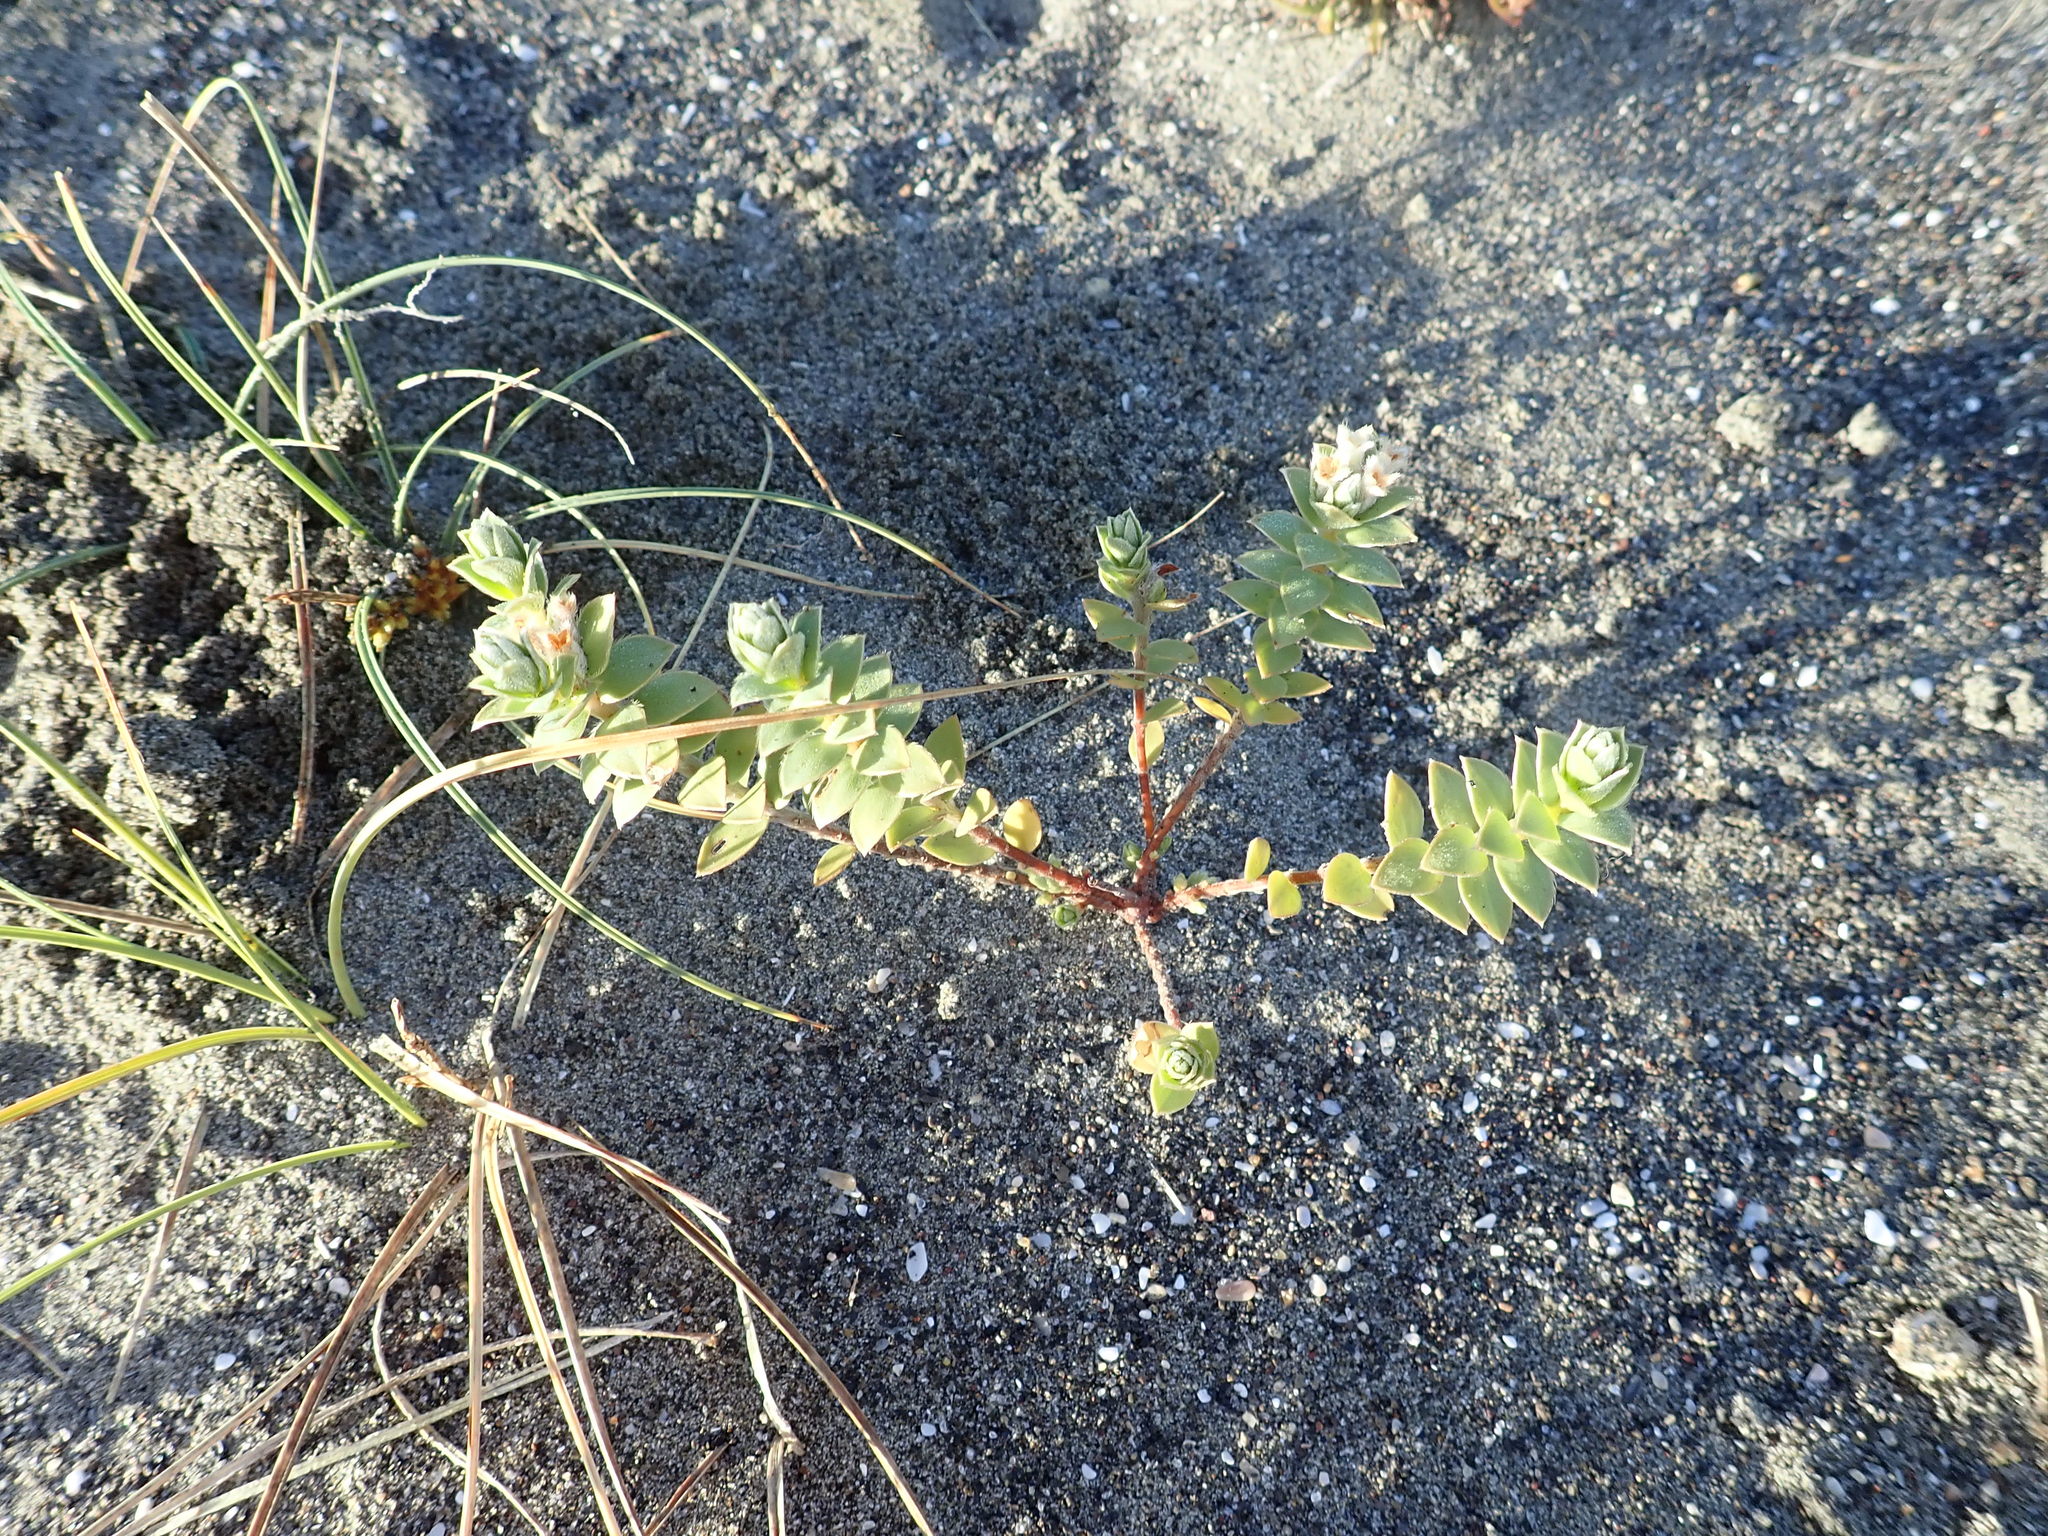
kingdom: Plantae
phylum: Tracheophyta
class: Magnoliopsida
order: Malvales
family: Thymelaeaceae
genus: Pimelea
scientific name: Pimelea villosa
